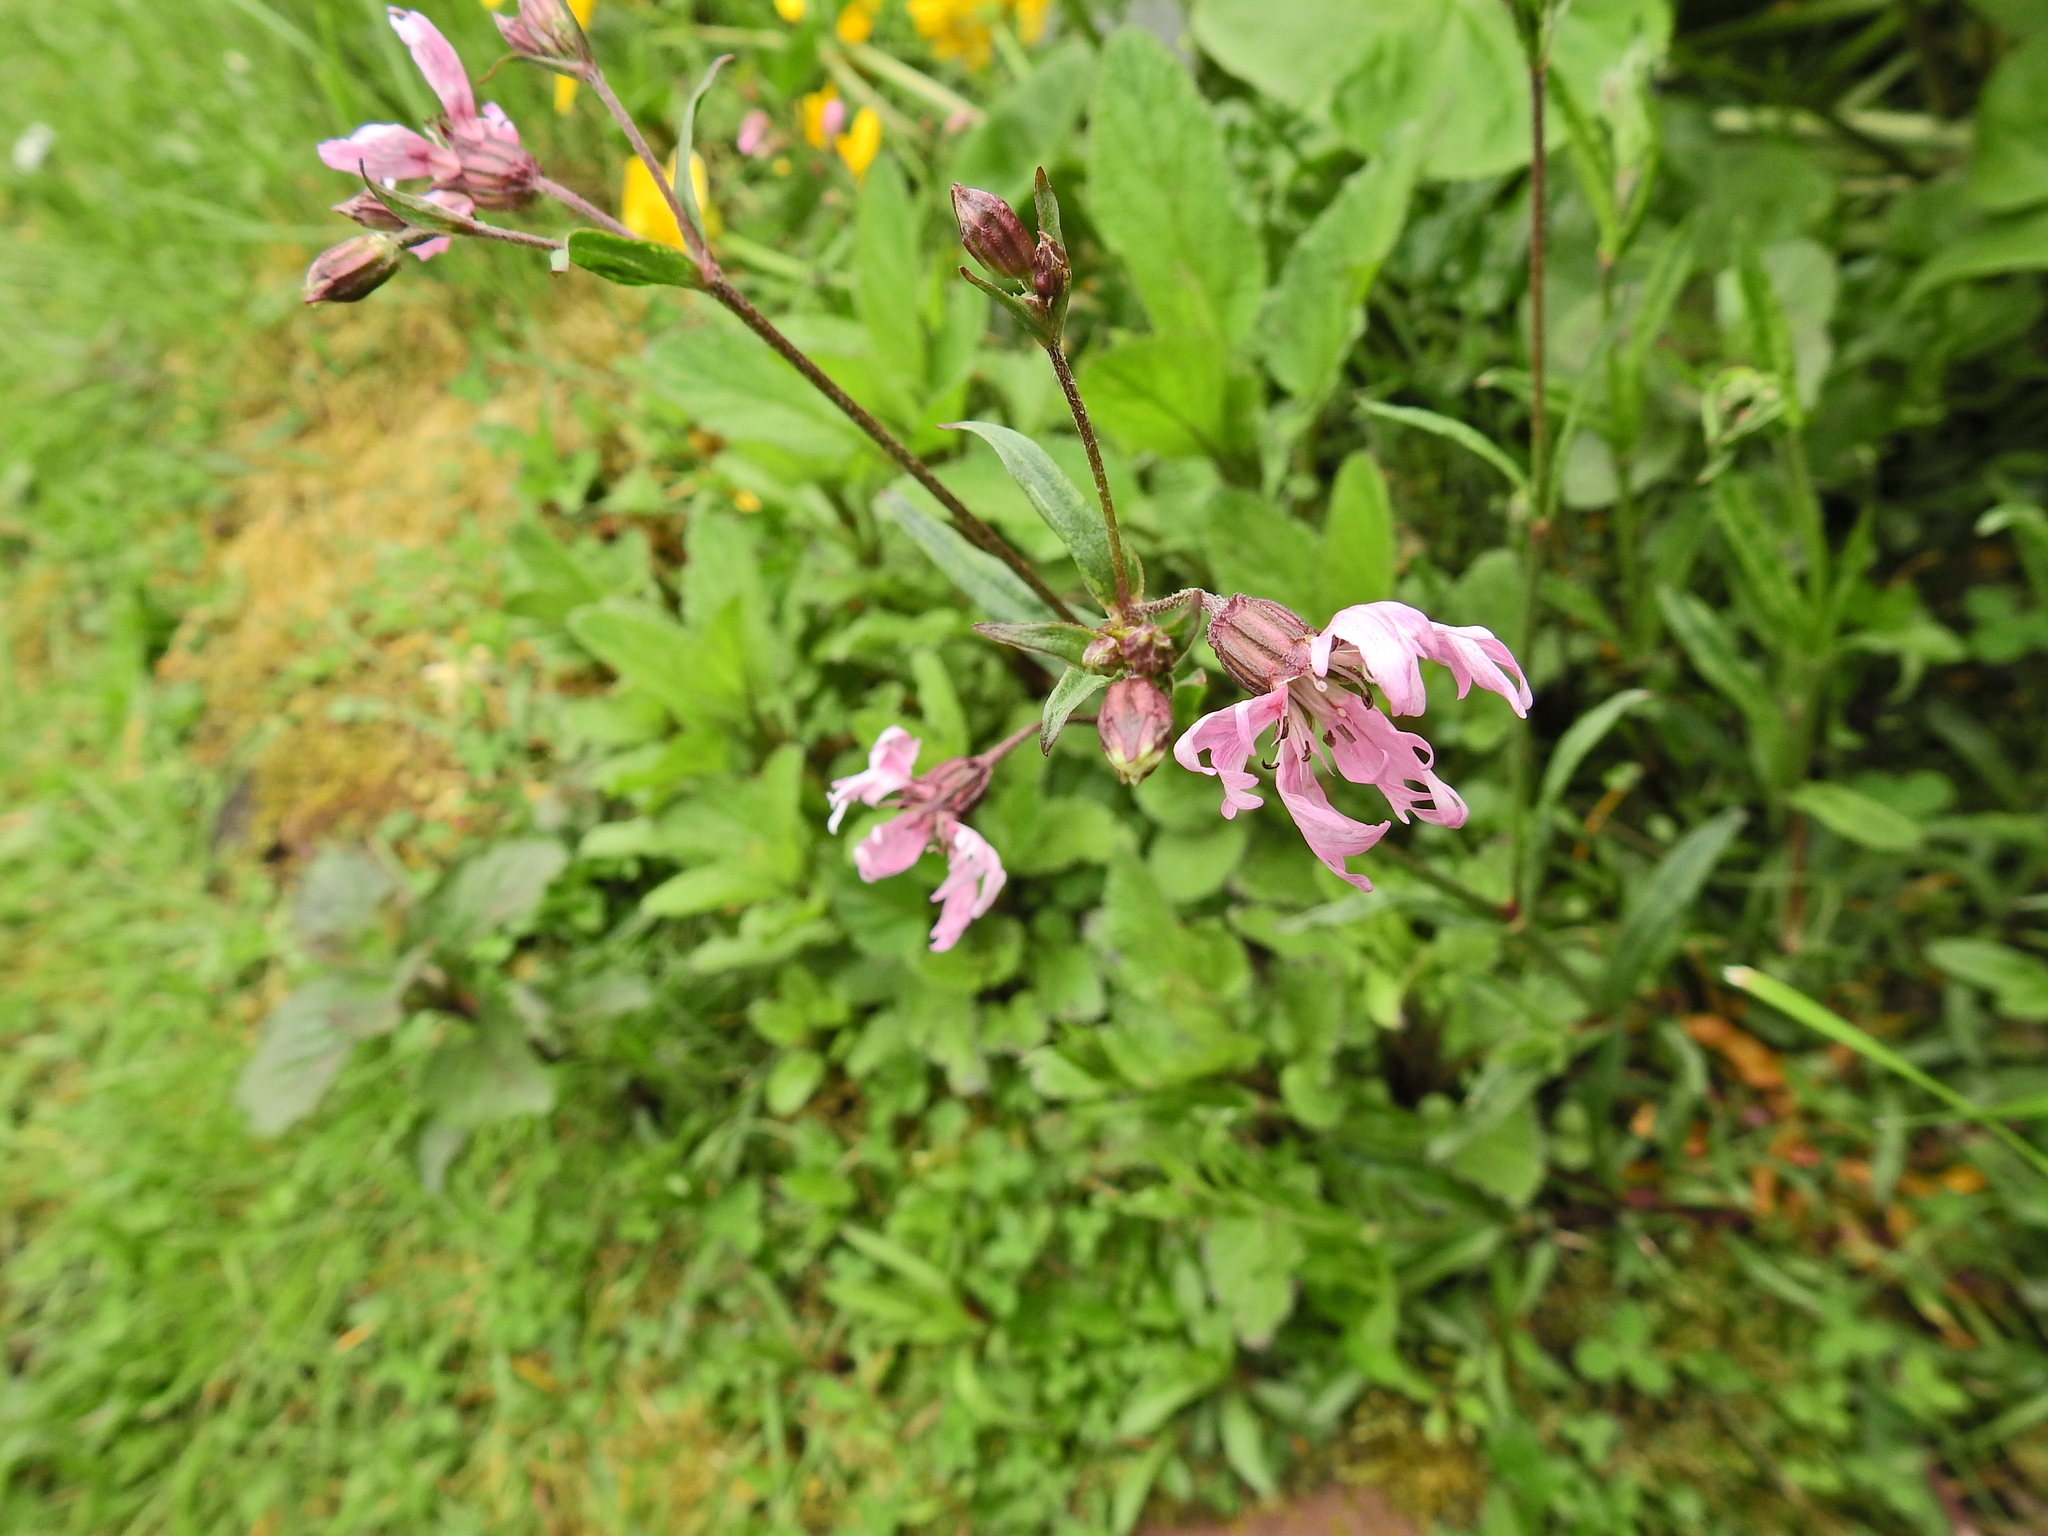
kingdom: Plantae
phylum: Tracheophyta
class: Magnoliopsida
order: Caryophyllales
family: Caryophyllaceae
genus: Silene
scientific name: Silene flos-cuculi
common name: Ragged-robin
